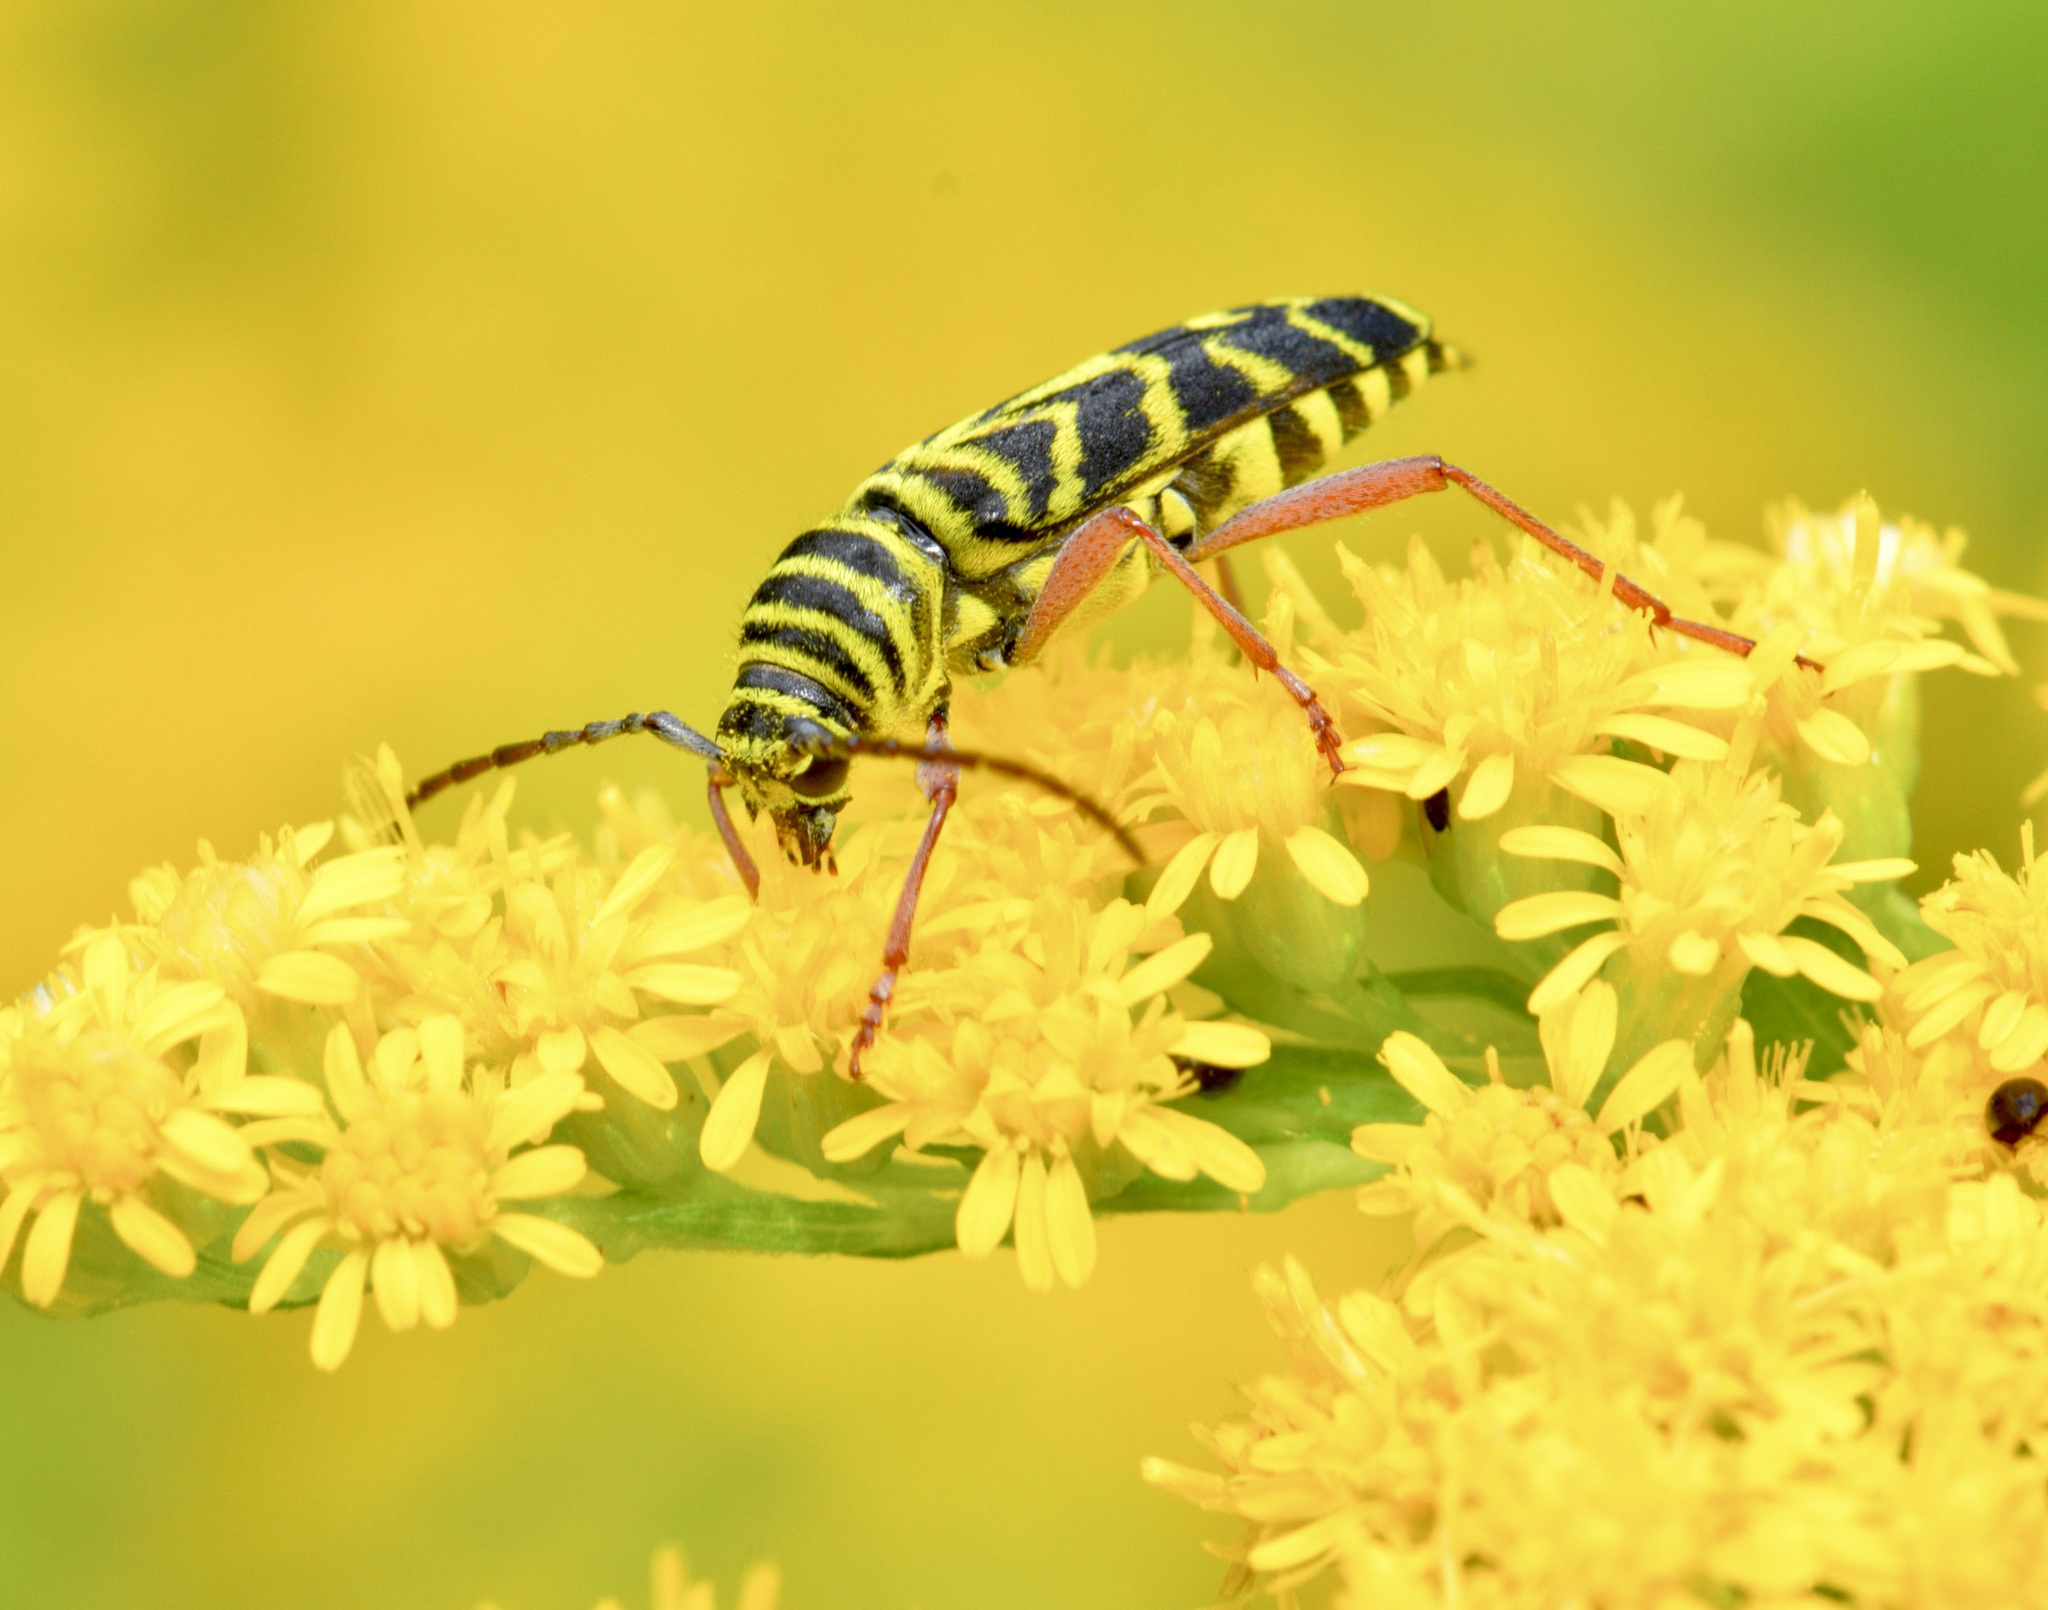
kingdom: Animalia
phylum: Arthropoda
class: Insecta
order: Coleoptera
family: Cerambycidae
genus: Megacyllene
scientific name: Megacyllene robiniae
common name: Locust borer
